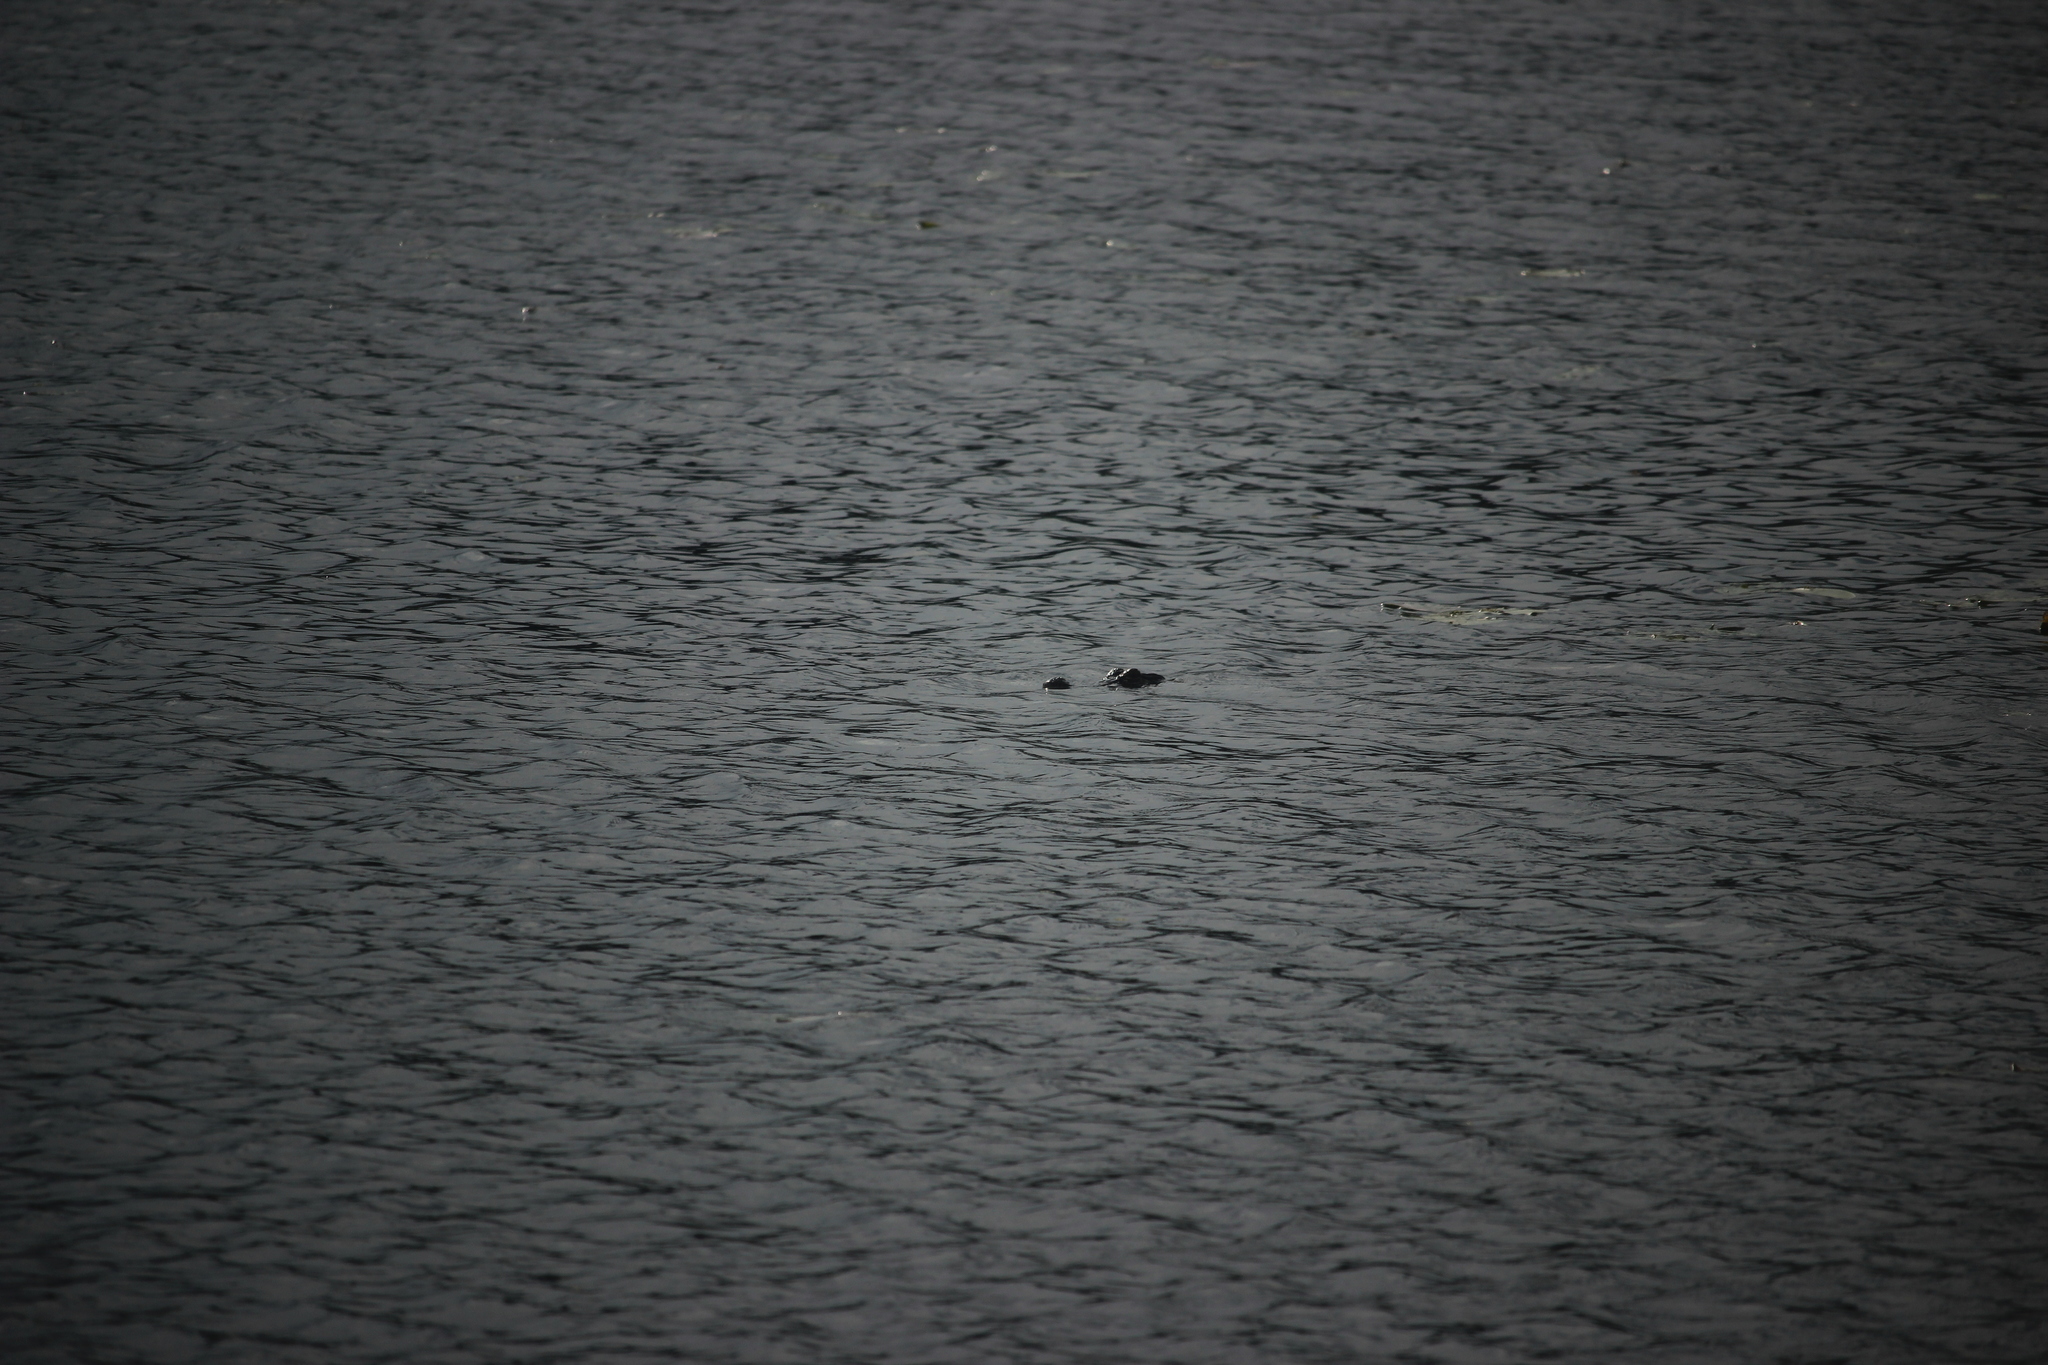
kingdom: Animalia
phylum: Chordata
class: Crocodylia
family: Alligatoridae
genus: Alligator
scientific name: Alligator mississippiensis
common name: American alligator
